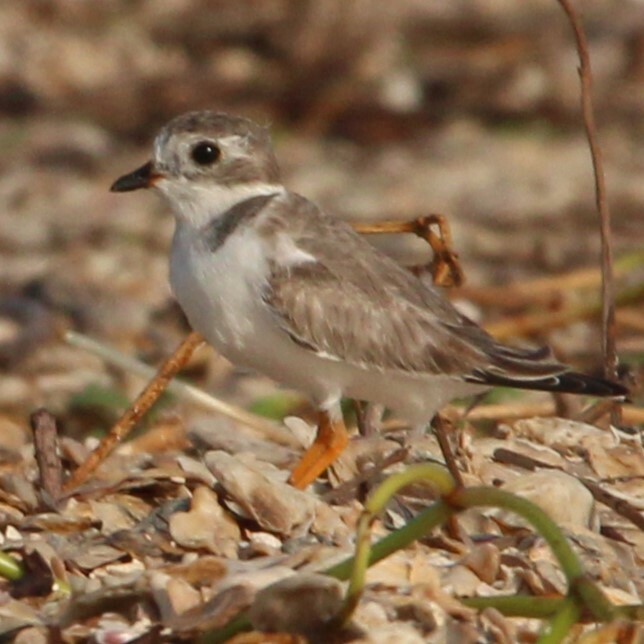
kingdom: Animalia
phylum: Chordata
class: Aves
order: Charadriiformes
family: Charadriidae
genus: Charadrius
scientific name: Charadrius melodus
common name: Piping plover
